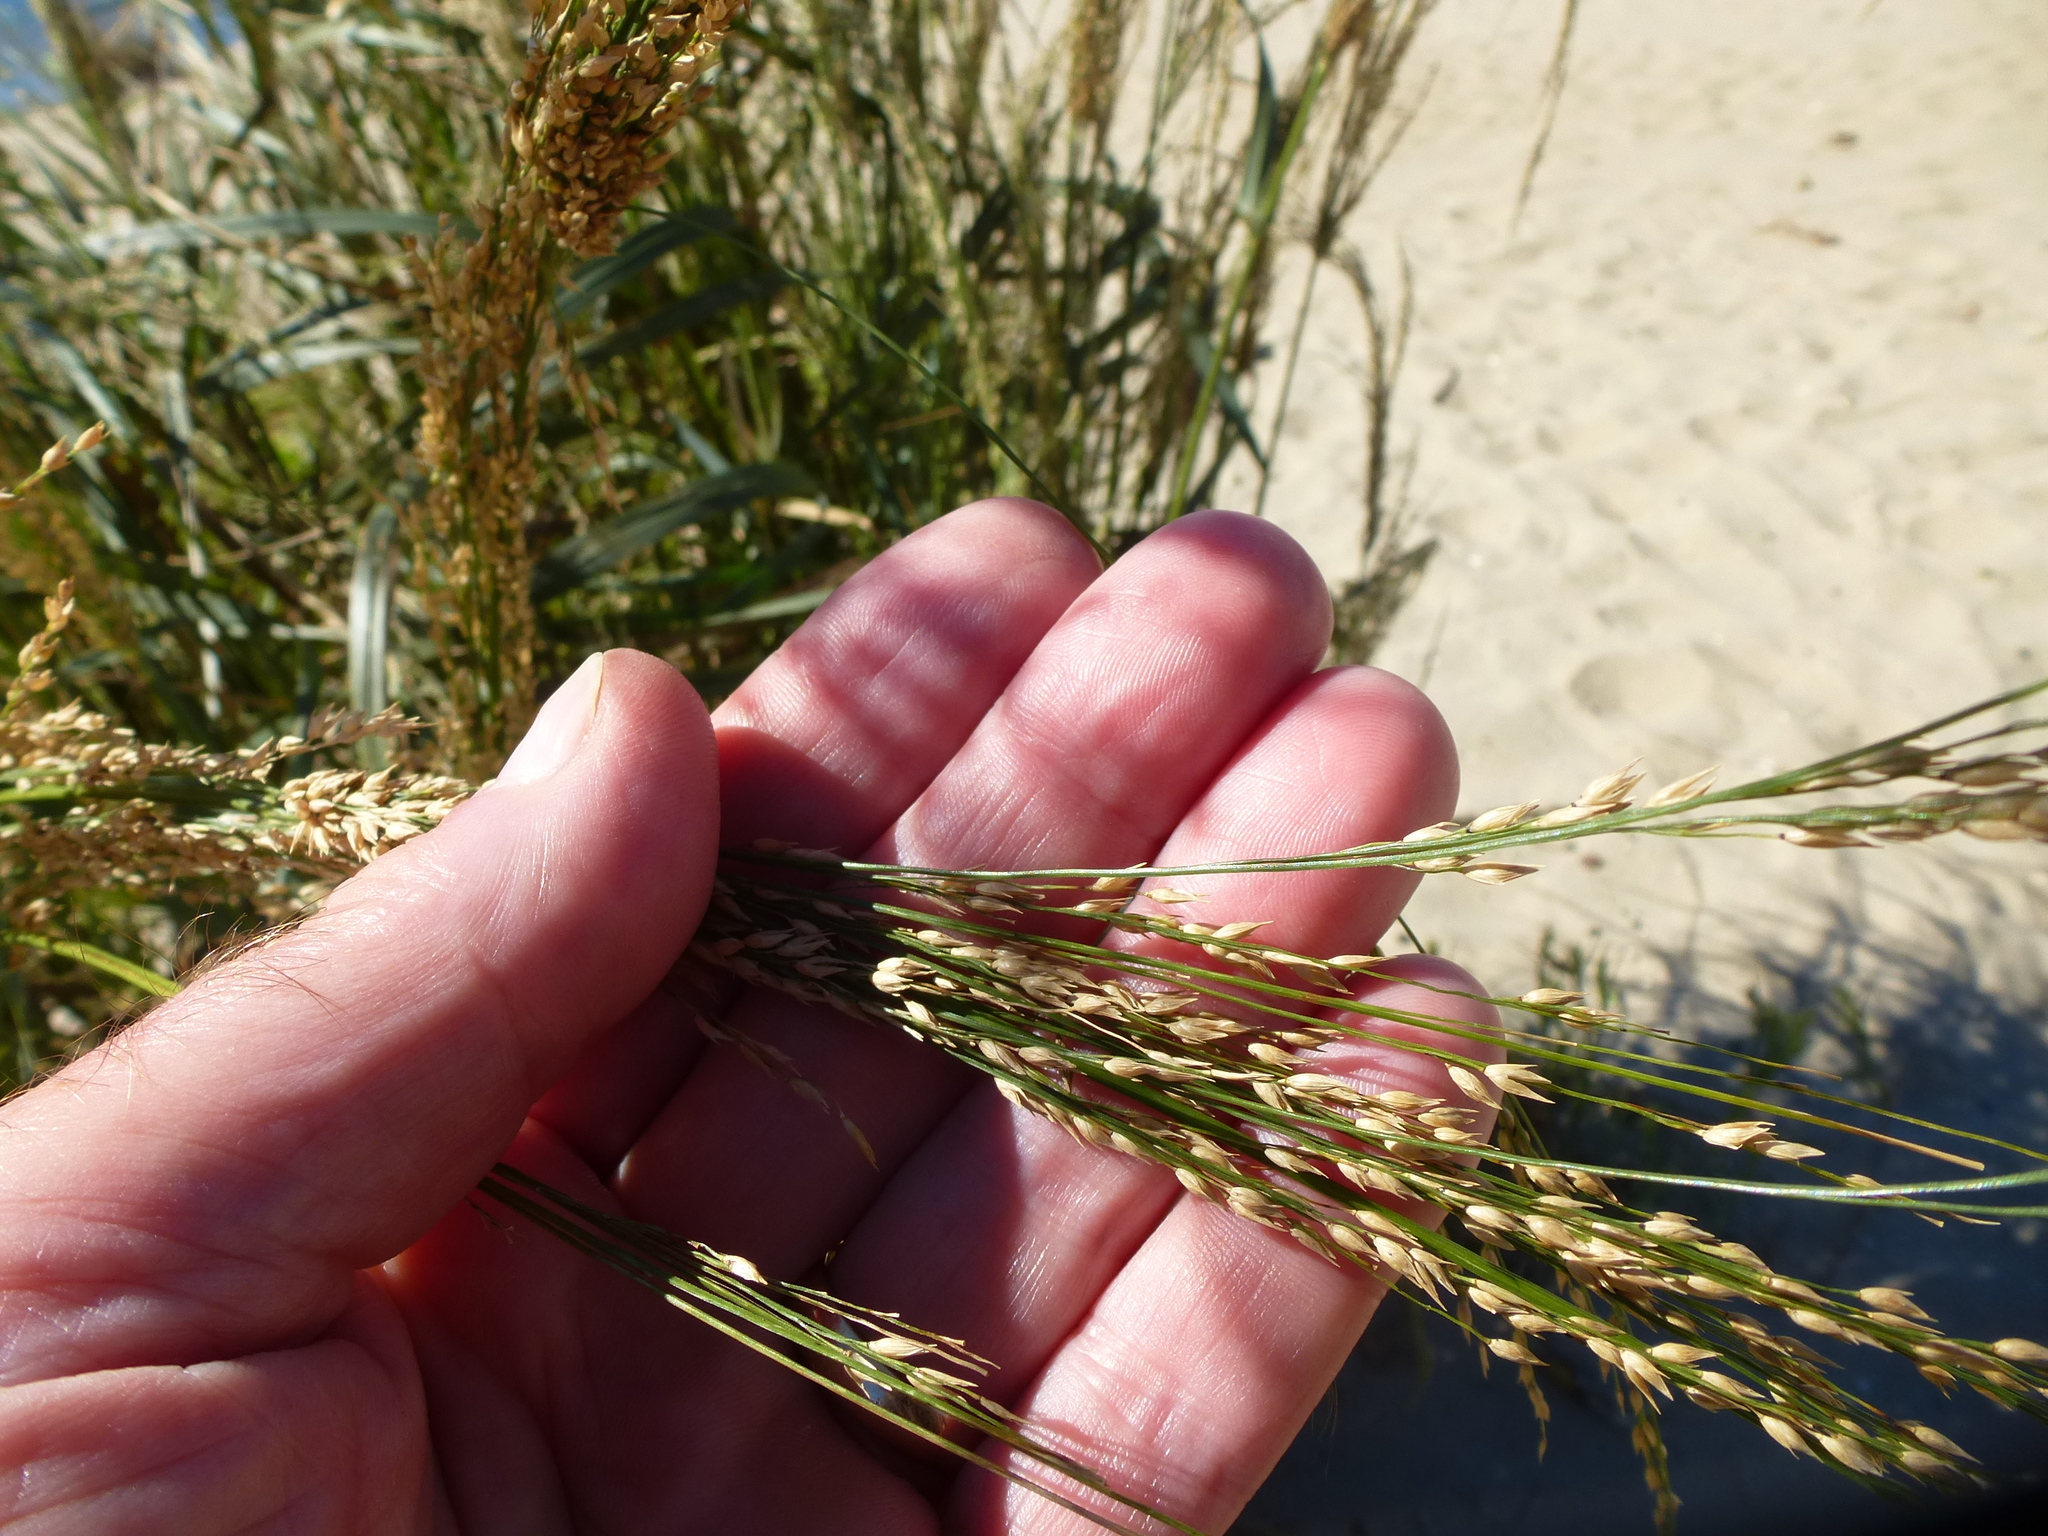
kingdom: Plantae
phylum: Tracheophyta
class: Liliopsida
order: Poales
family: Poaceae
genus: Panicum
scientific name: Panicum amarum
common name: Bitter panicum
